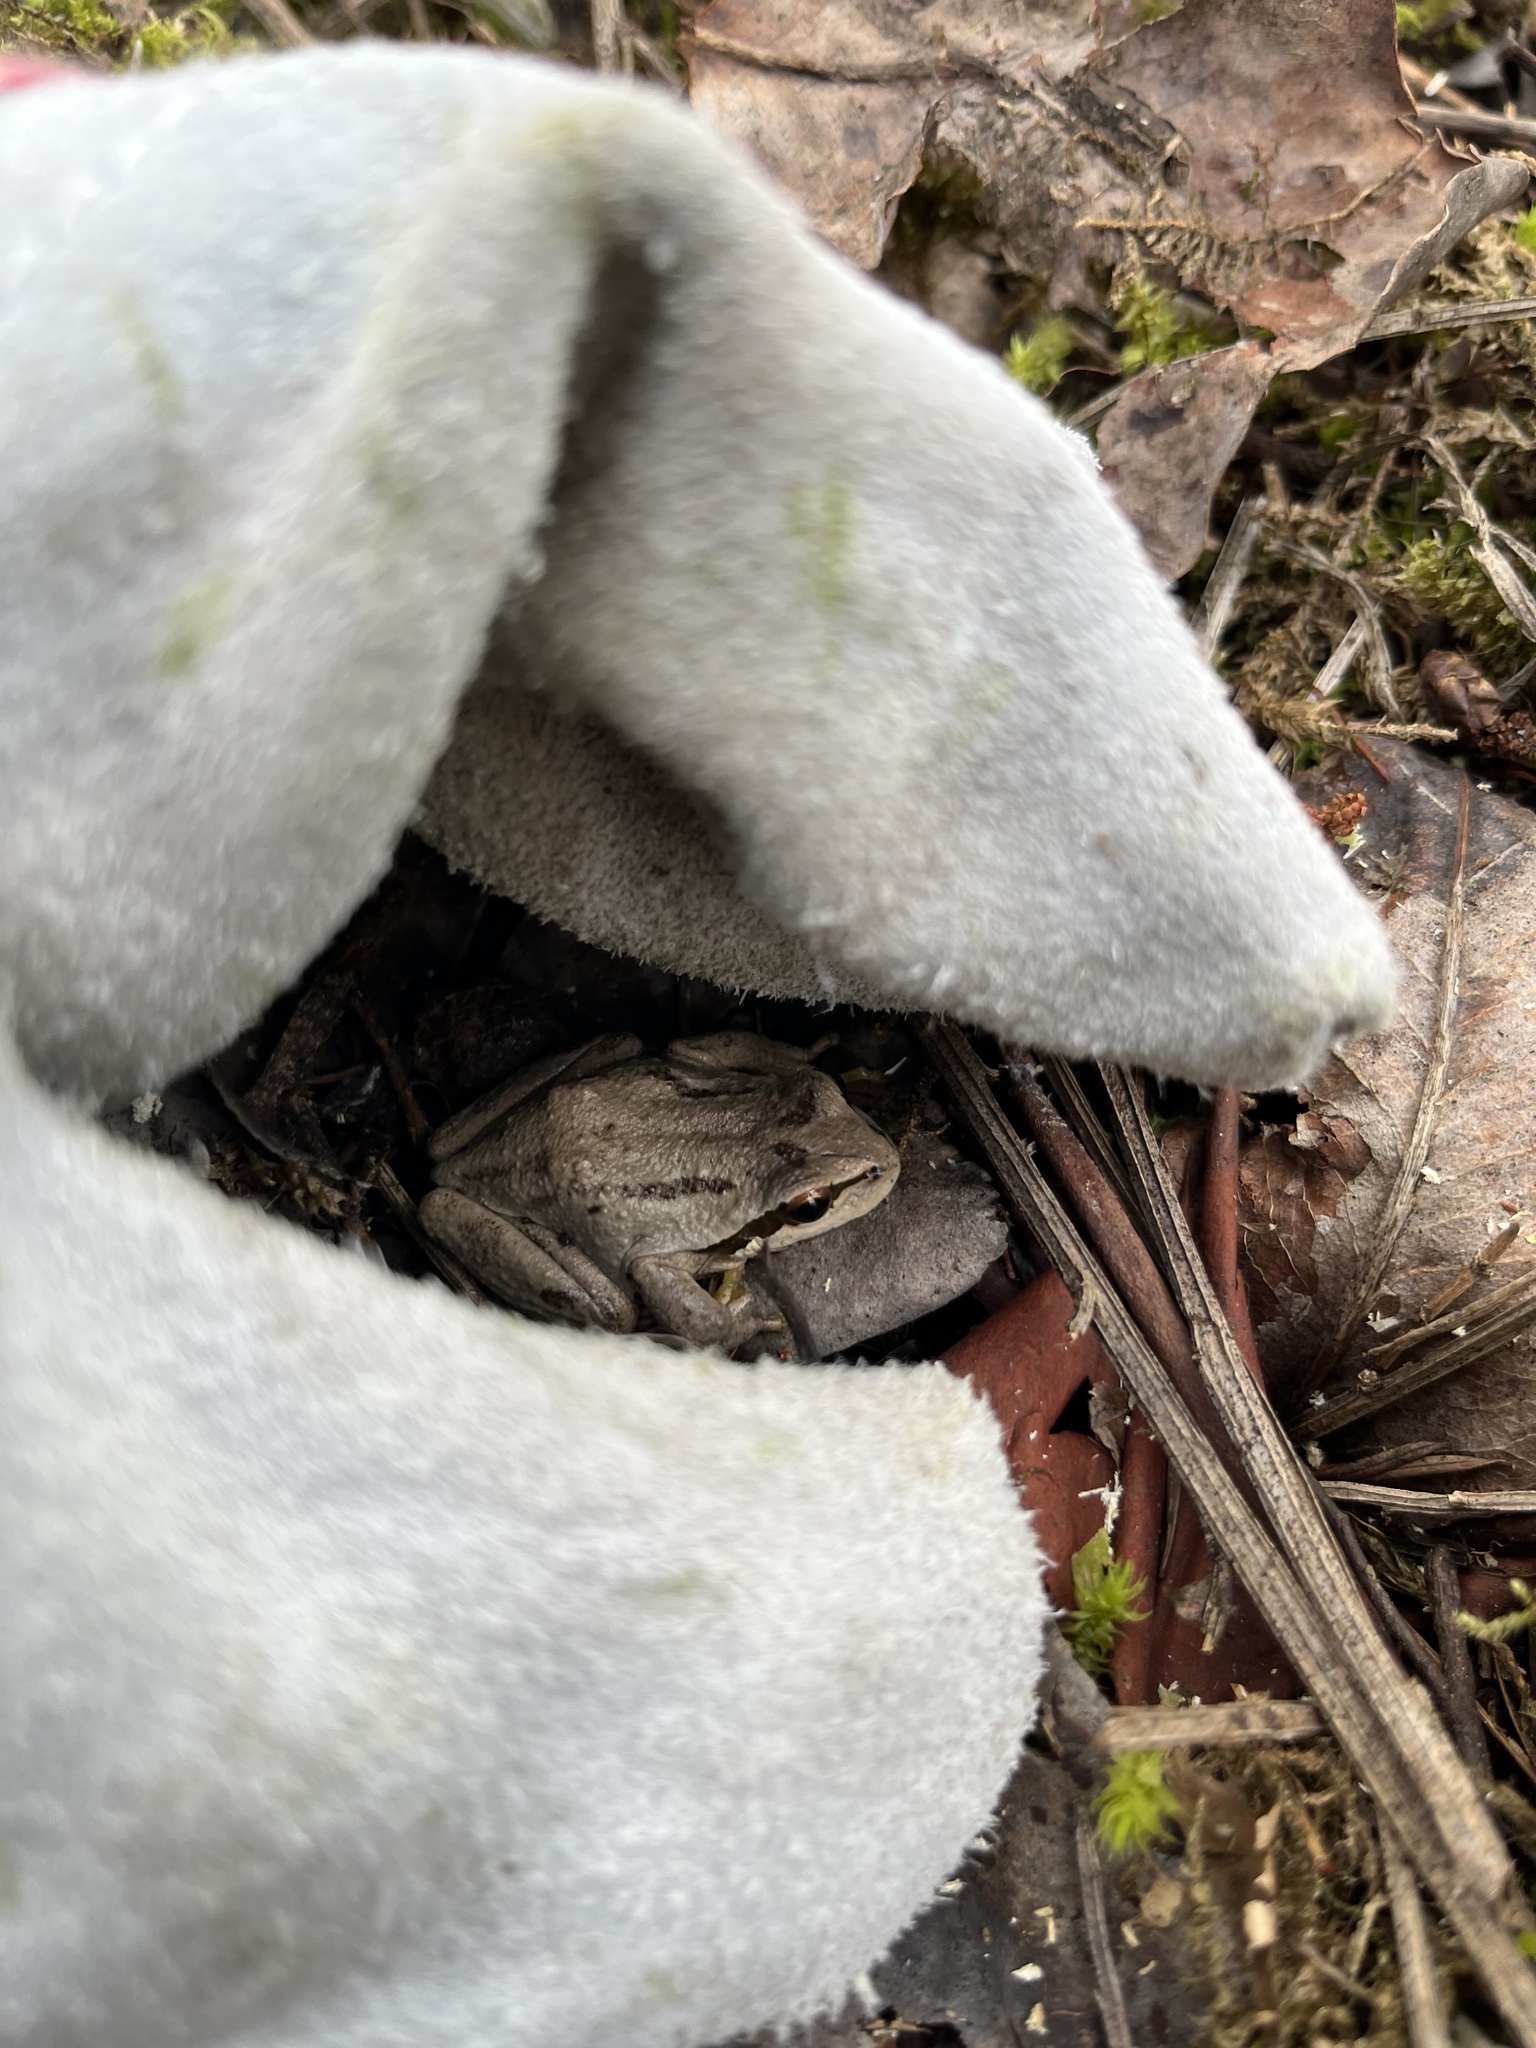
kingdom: Animalia
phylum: Chordata
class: Amphibia
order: Anura
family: Hylidae
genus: Pseudacris
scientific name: Pseudacris regilla
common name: Pacific chorus frog
